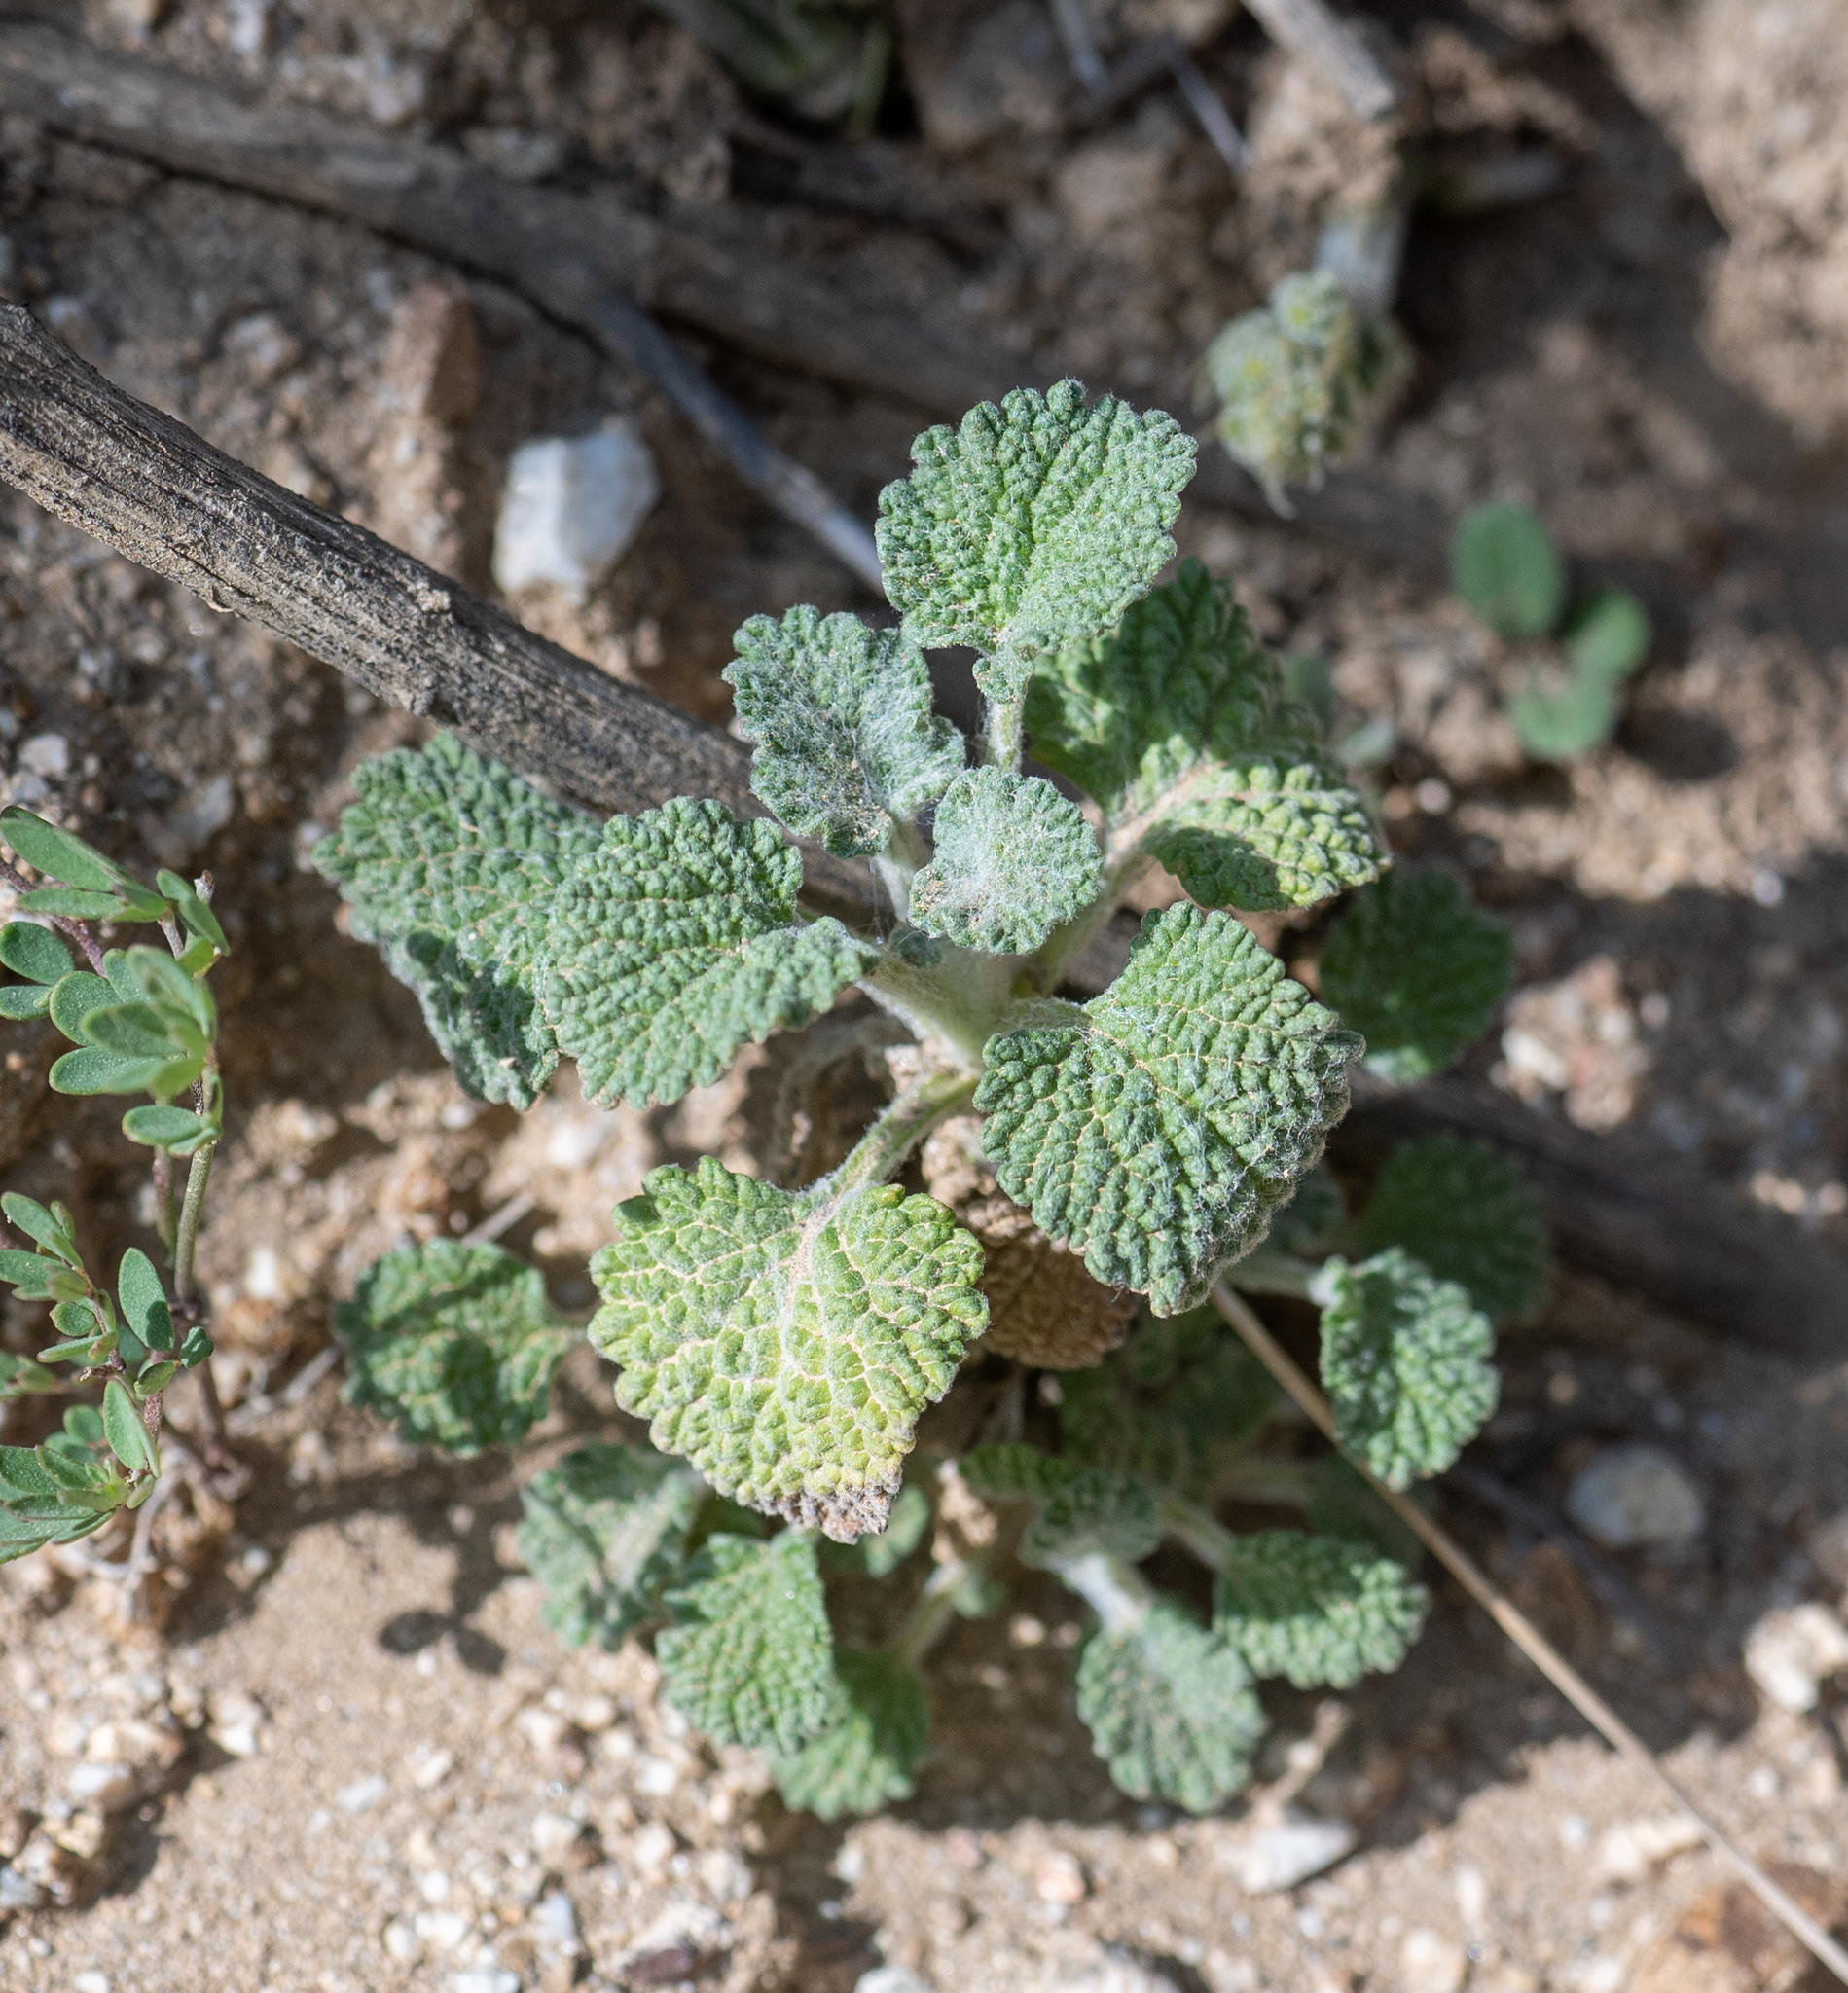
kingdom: Plantae
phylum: Tracheophyta
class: Magnoliopsida
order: Lamiales
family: Lamiaceae
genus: Marrubium
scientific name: Marrubium vulgare
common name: Horehound
